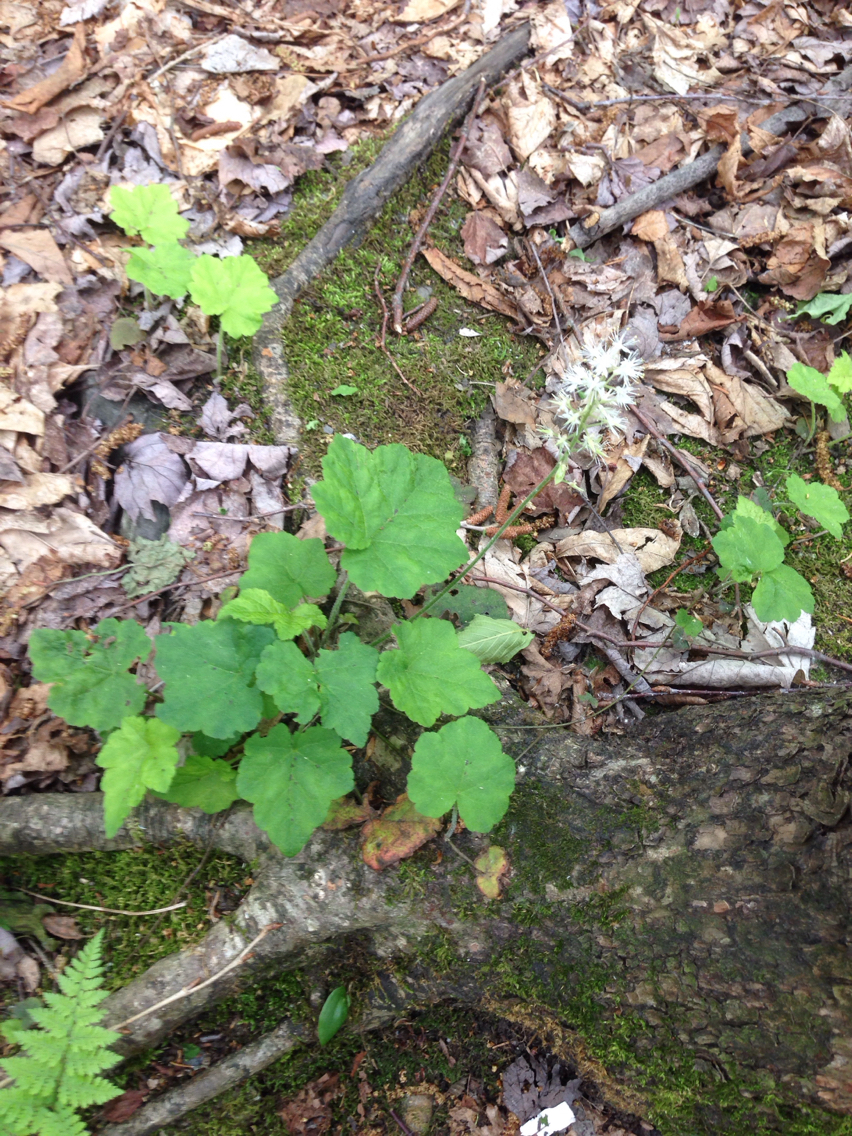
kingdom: Plantae
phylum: Tracheophyta
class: Magnoliopsida
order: Saxifragales
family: Saxifragaceae
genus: Tiarella
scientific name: Tiarella stolonifera
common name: Stoloniferous foamflower
